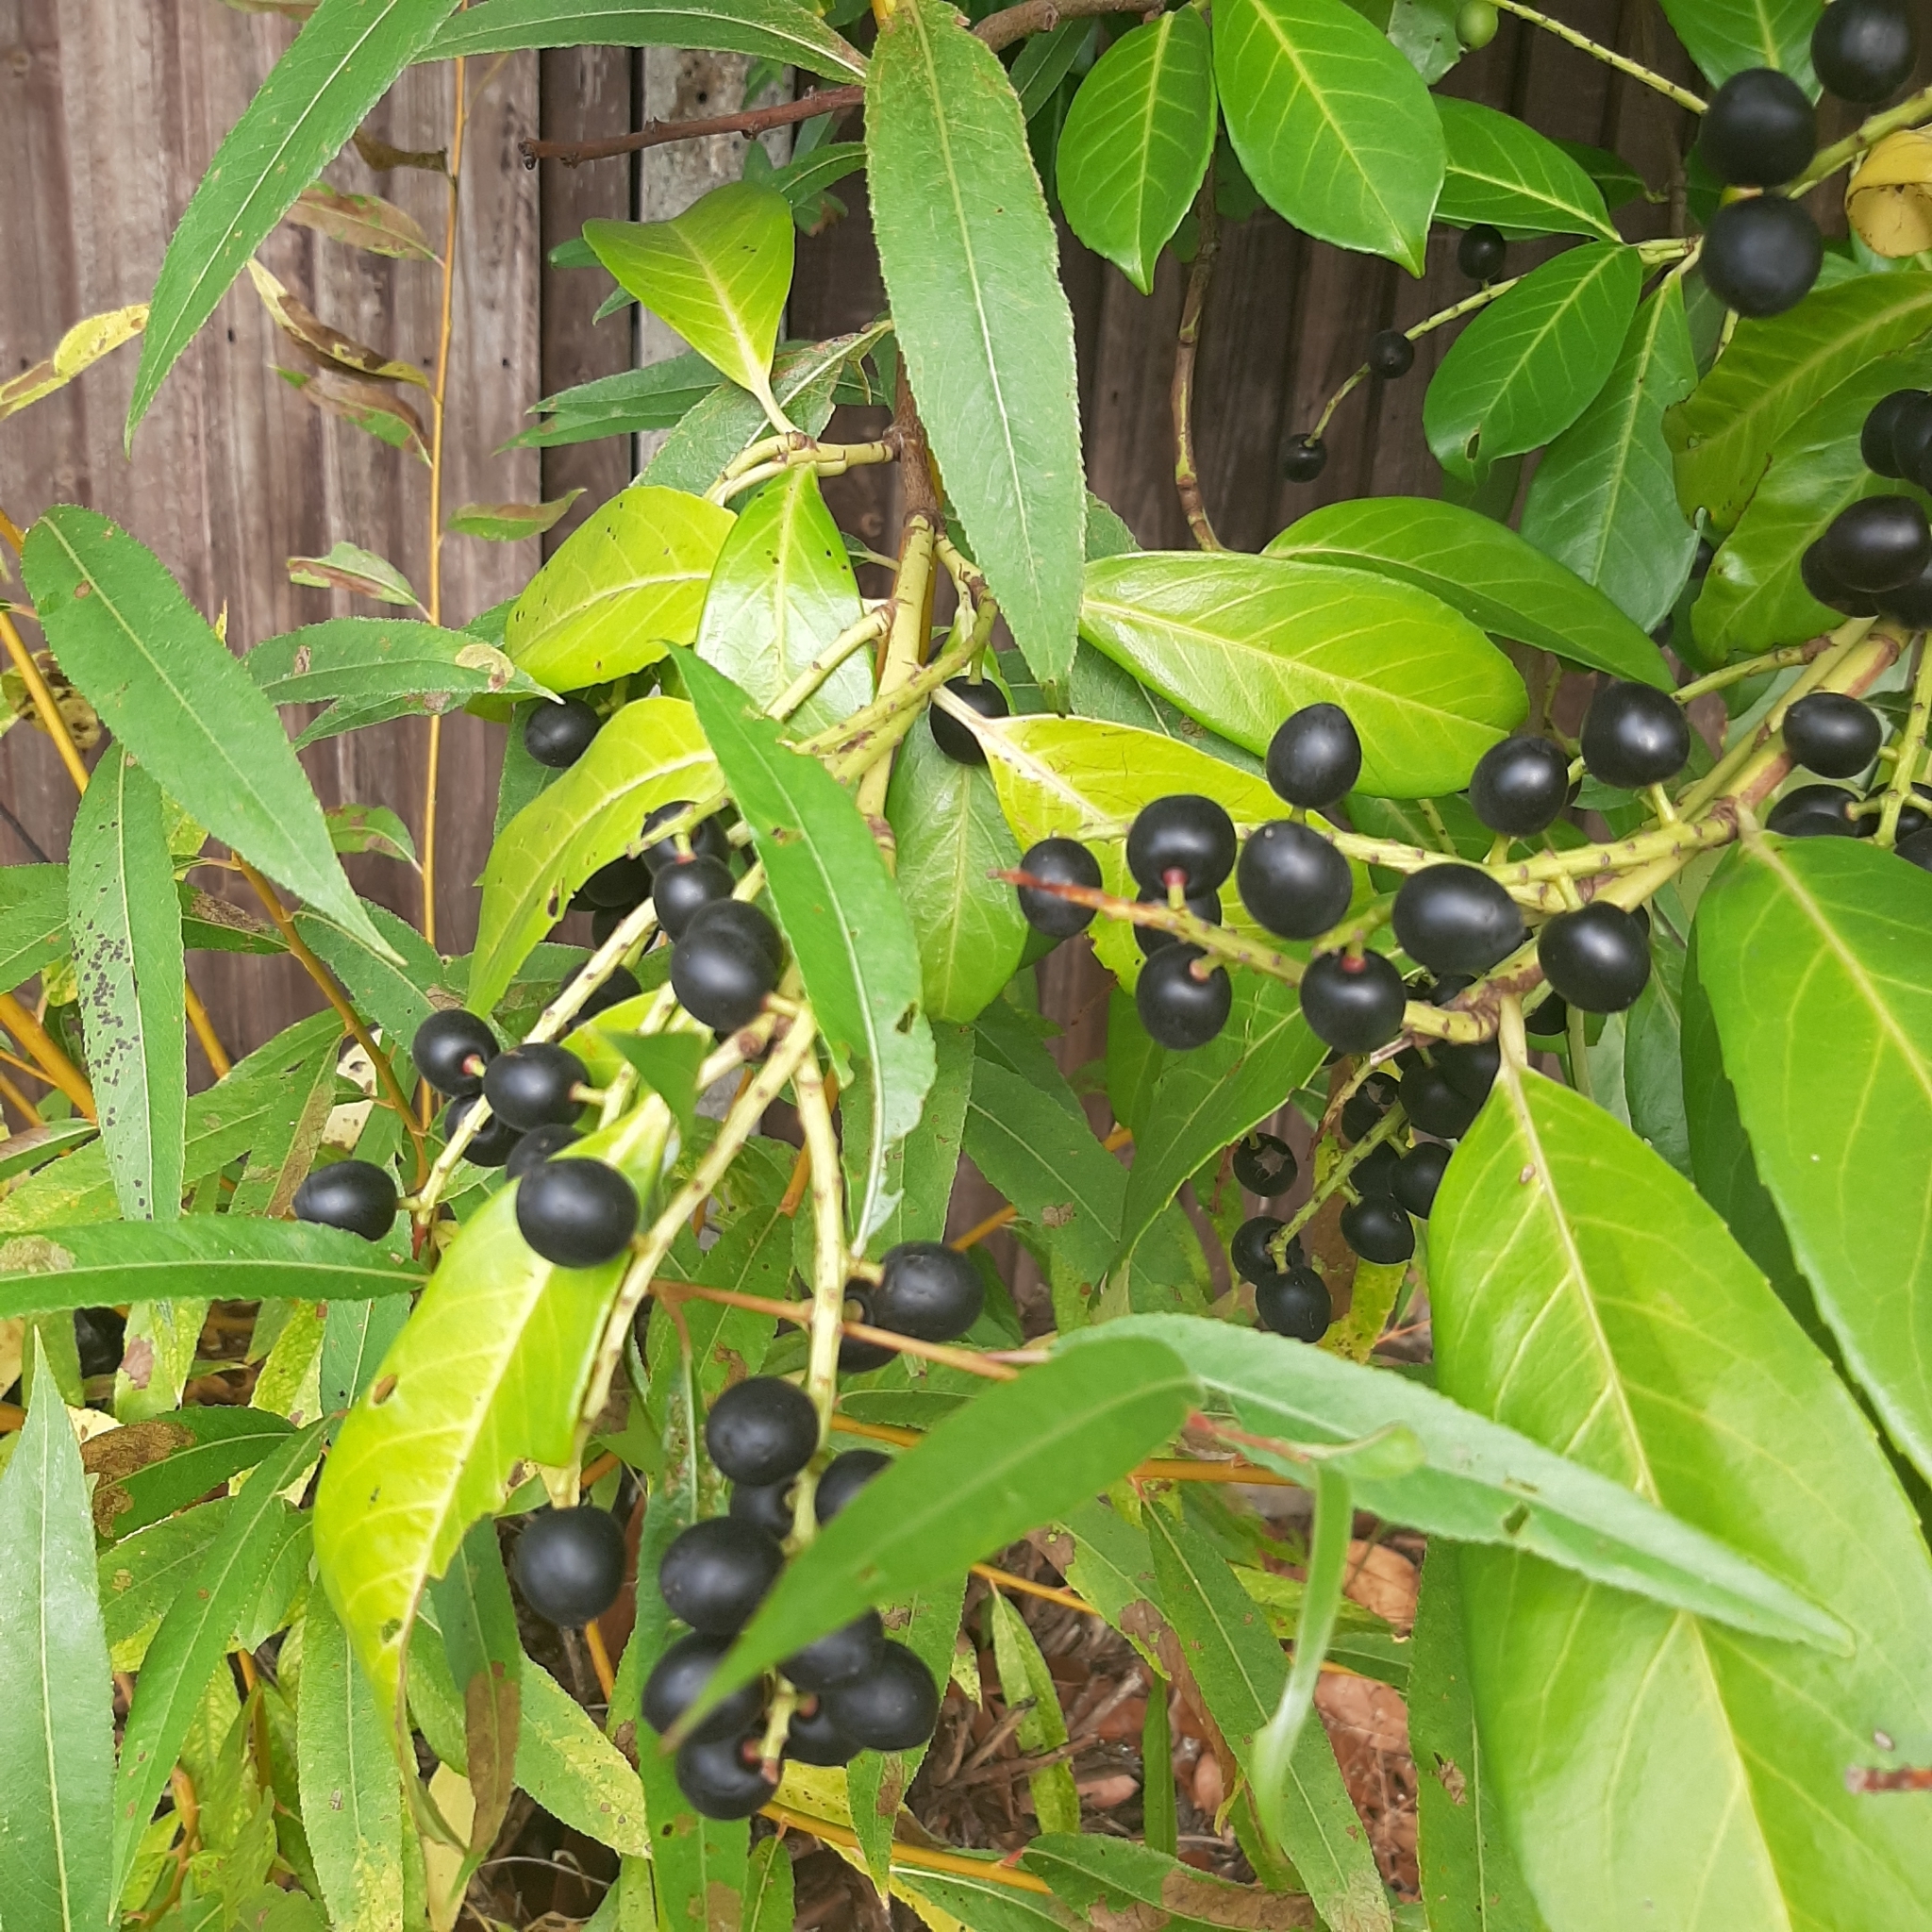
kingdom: Plantae
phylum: Tracheophyta
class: Magnoliopsida
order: Rosales
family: Rosaceae
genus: Prunus
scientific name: Prunus laurocerasus
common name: Cherry laurel
